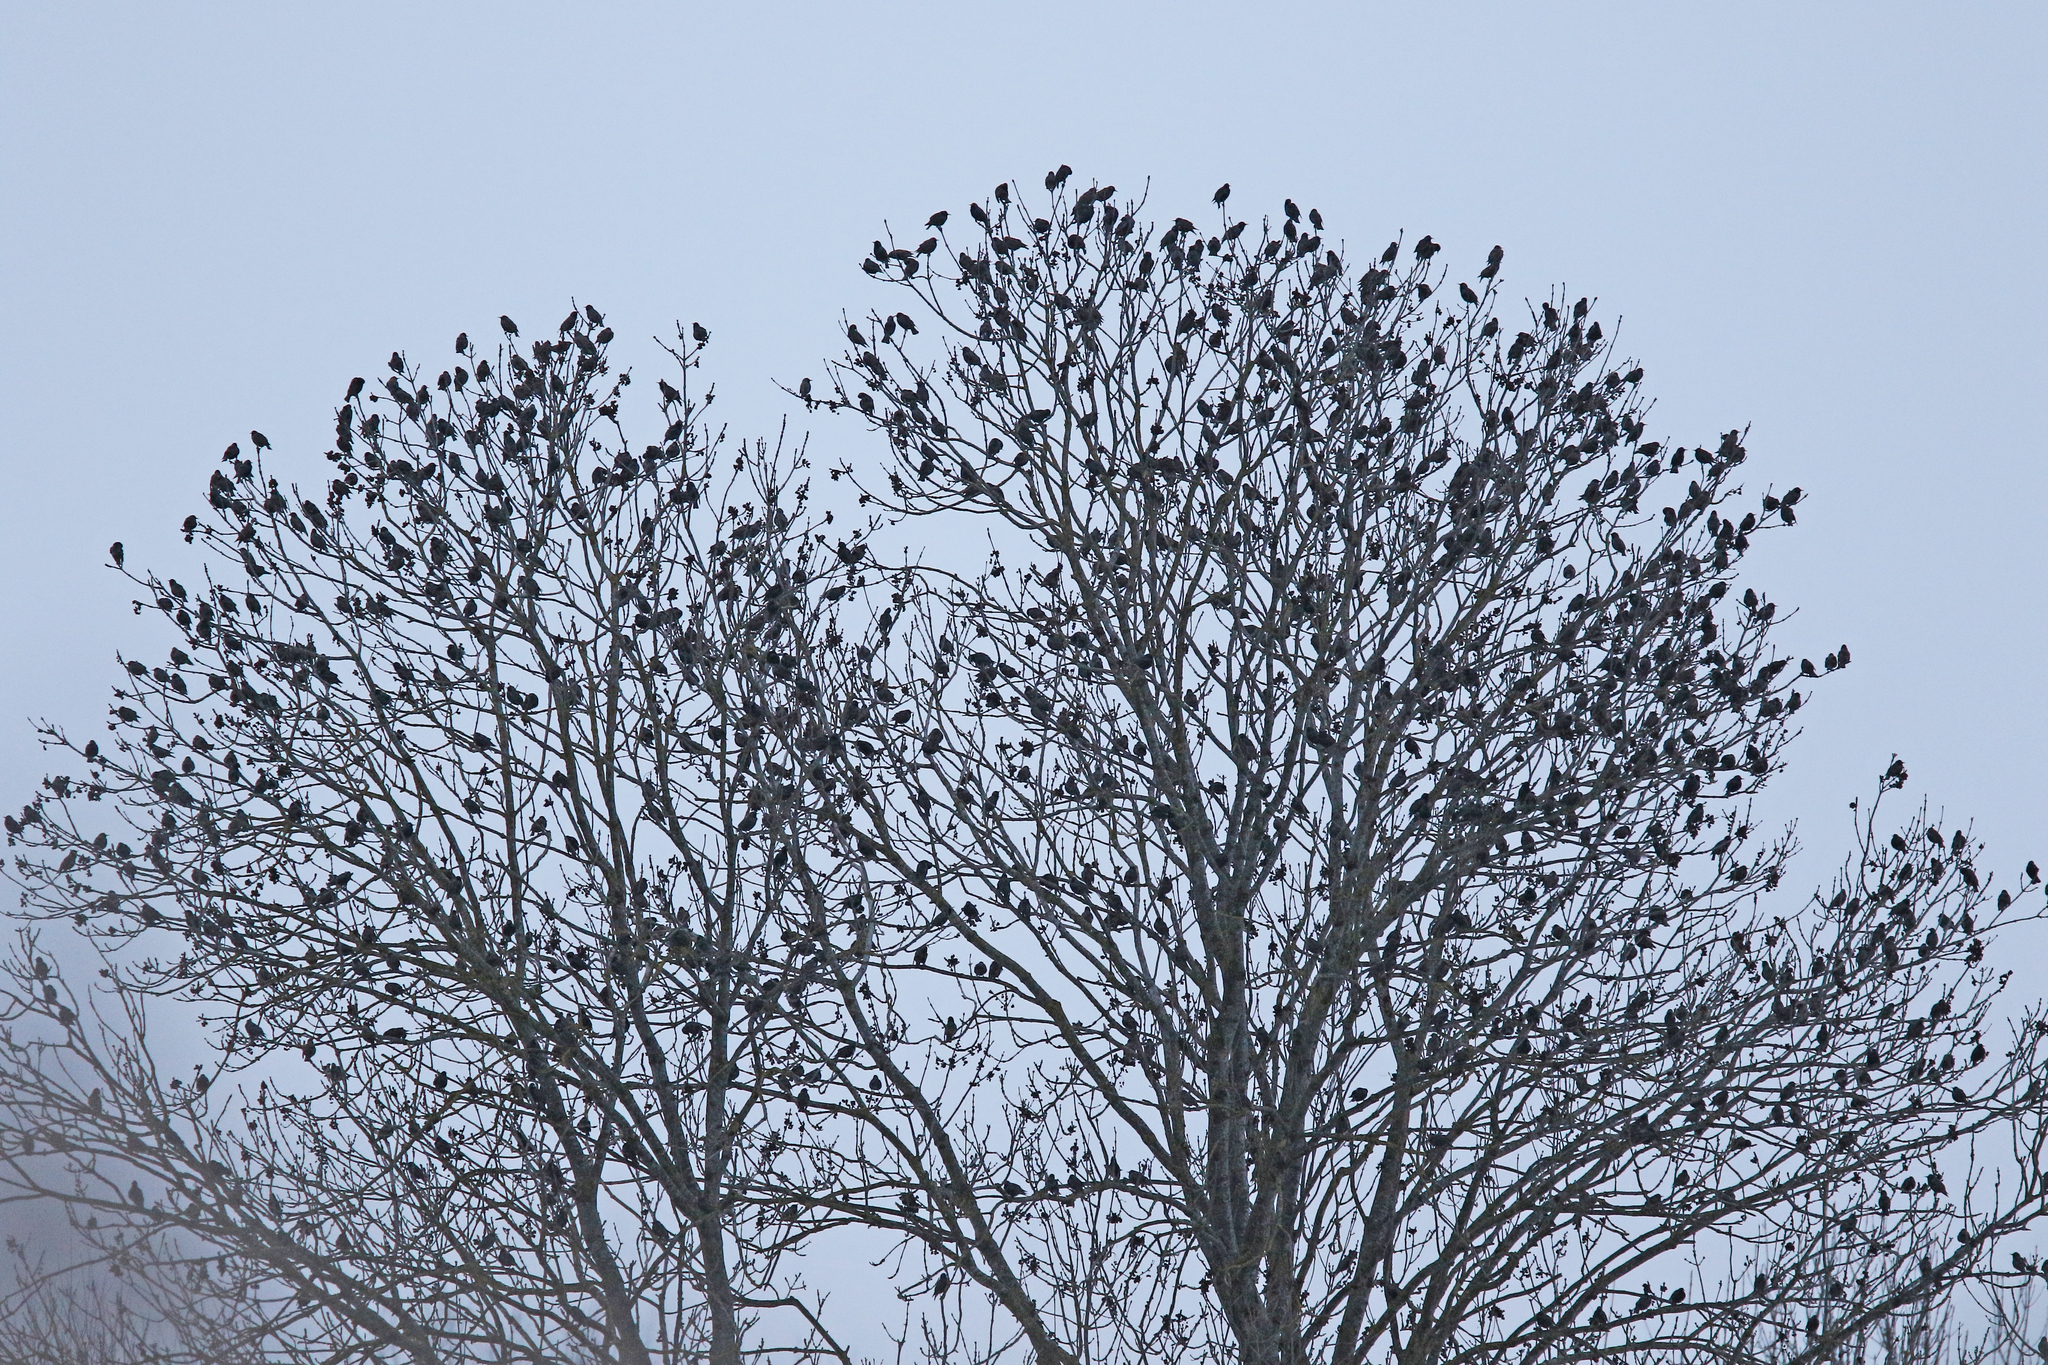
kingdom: Animalia
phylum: Chordata
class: Aves
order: Passeriformes
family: Sturnidae
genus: Sturnus
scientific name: Sturnus vulgaris
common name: Common starling
